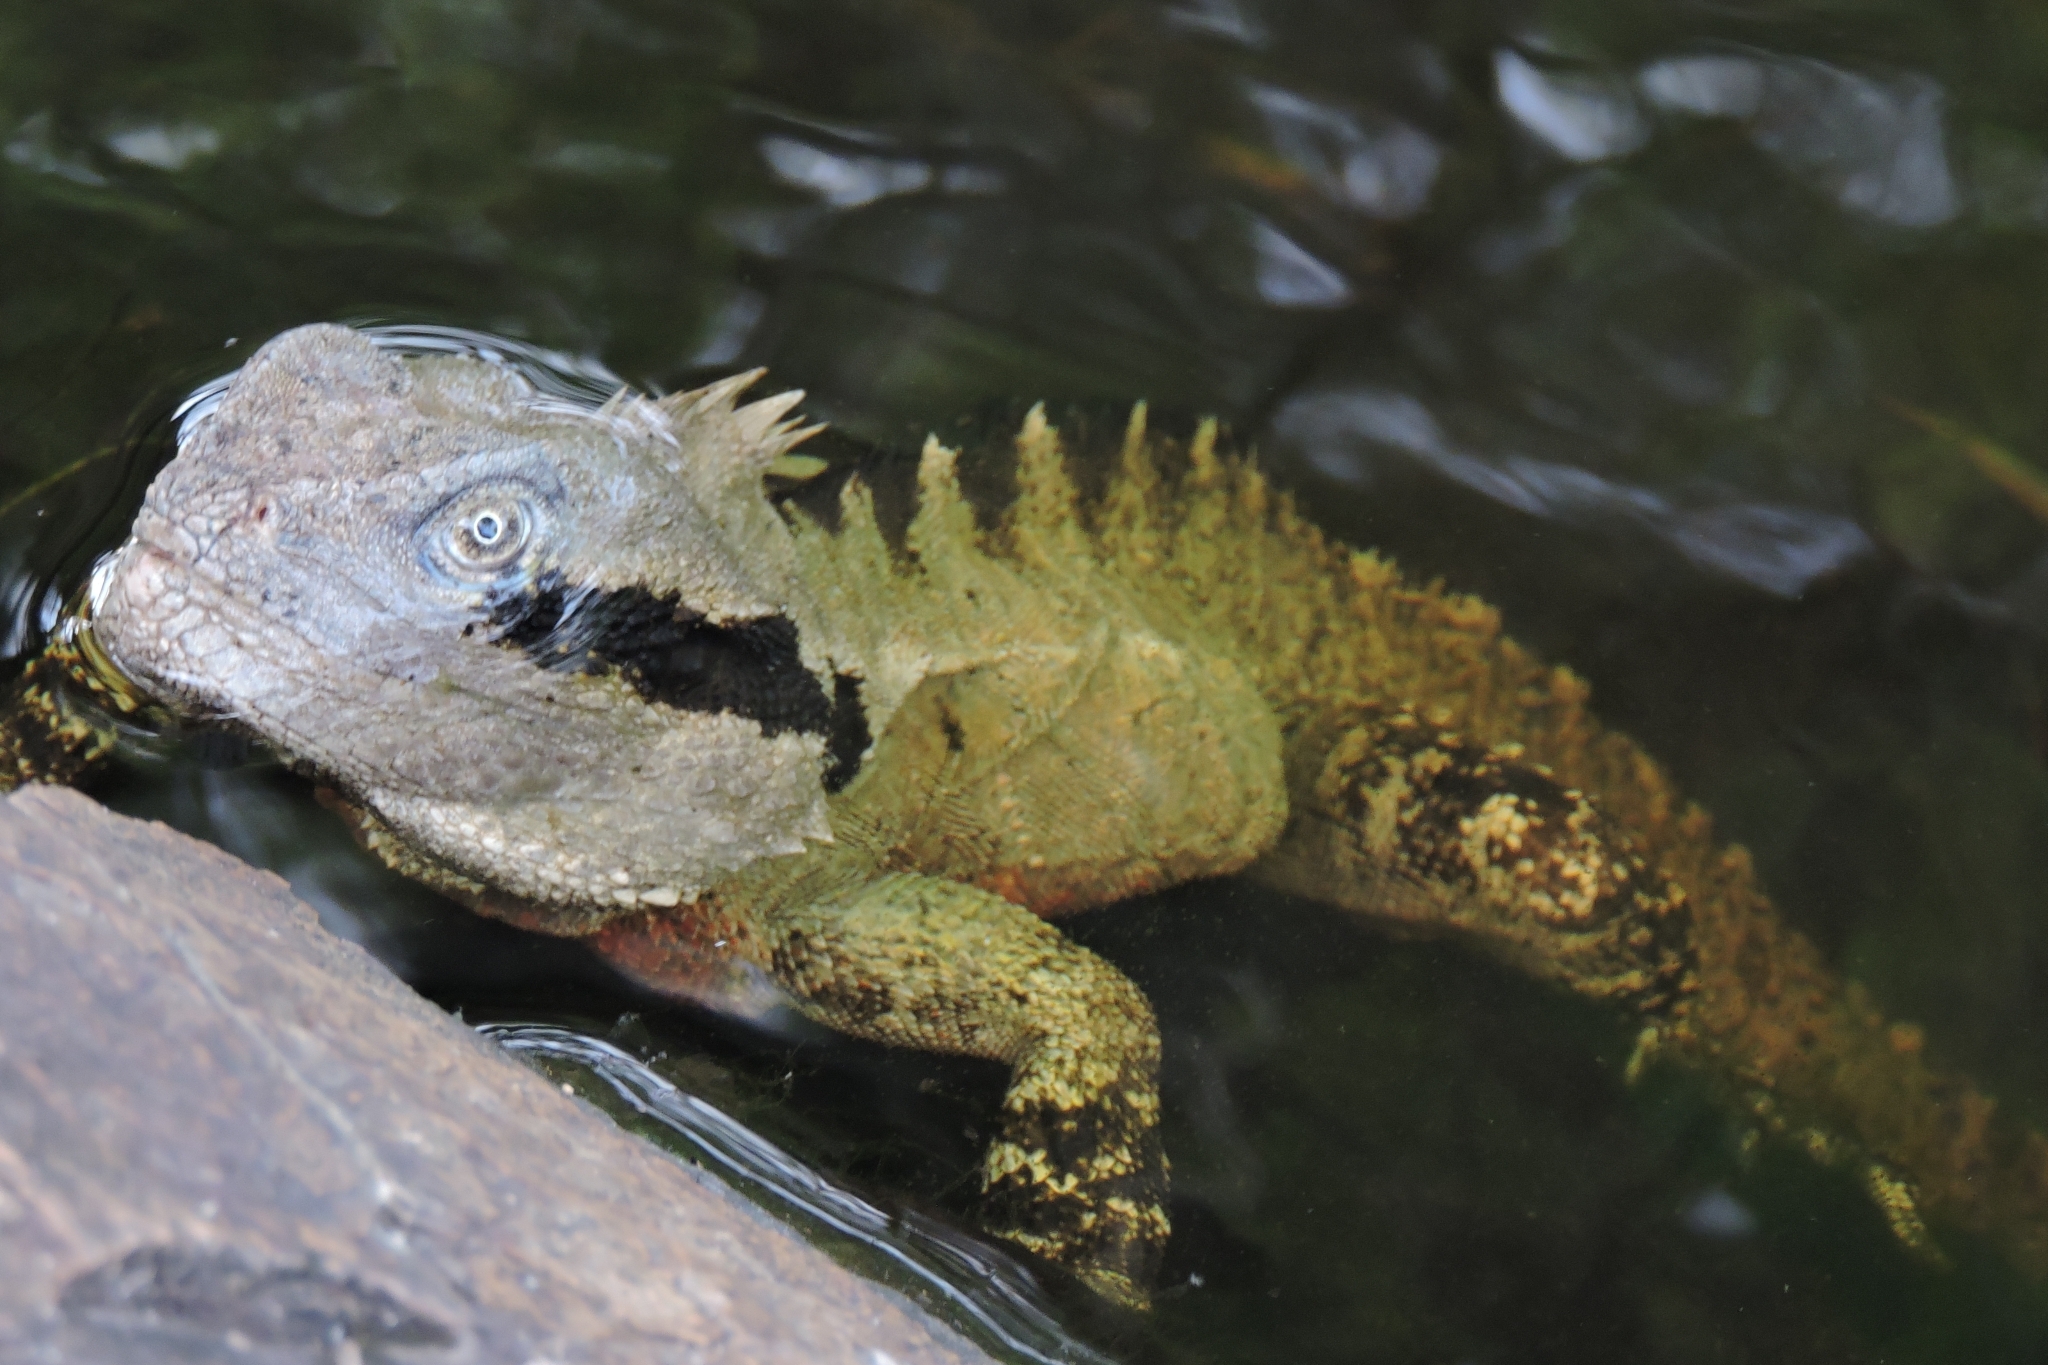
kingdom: Animalia
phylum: Chordata
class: Squamata
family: Agamidae
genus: Intellagama
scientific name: Intellagama lesueurii
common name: Eastern water dragon
